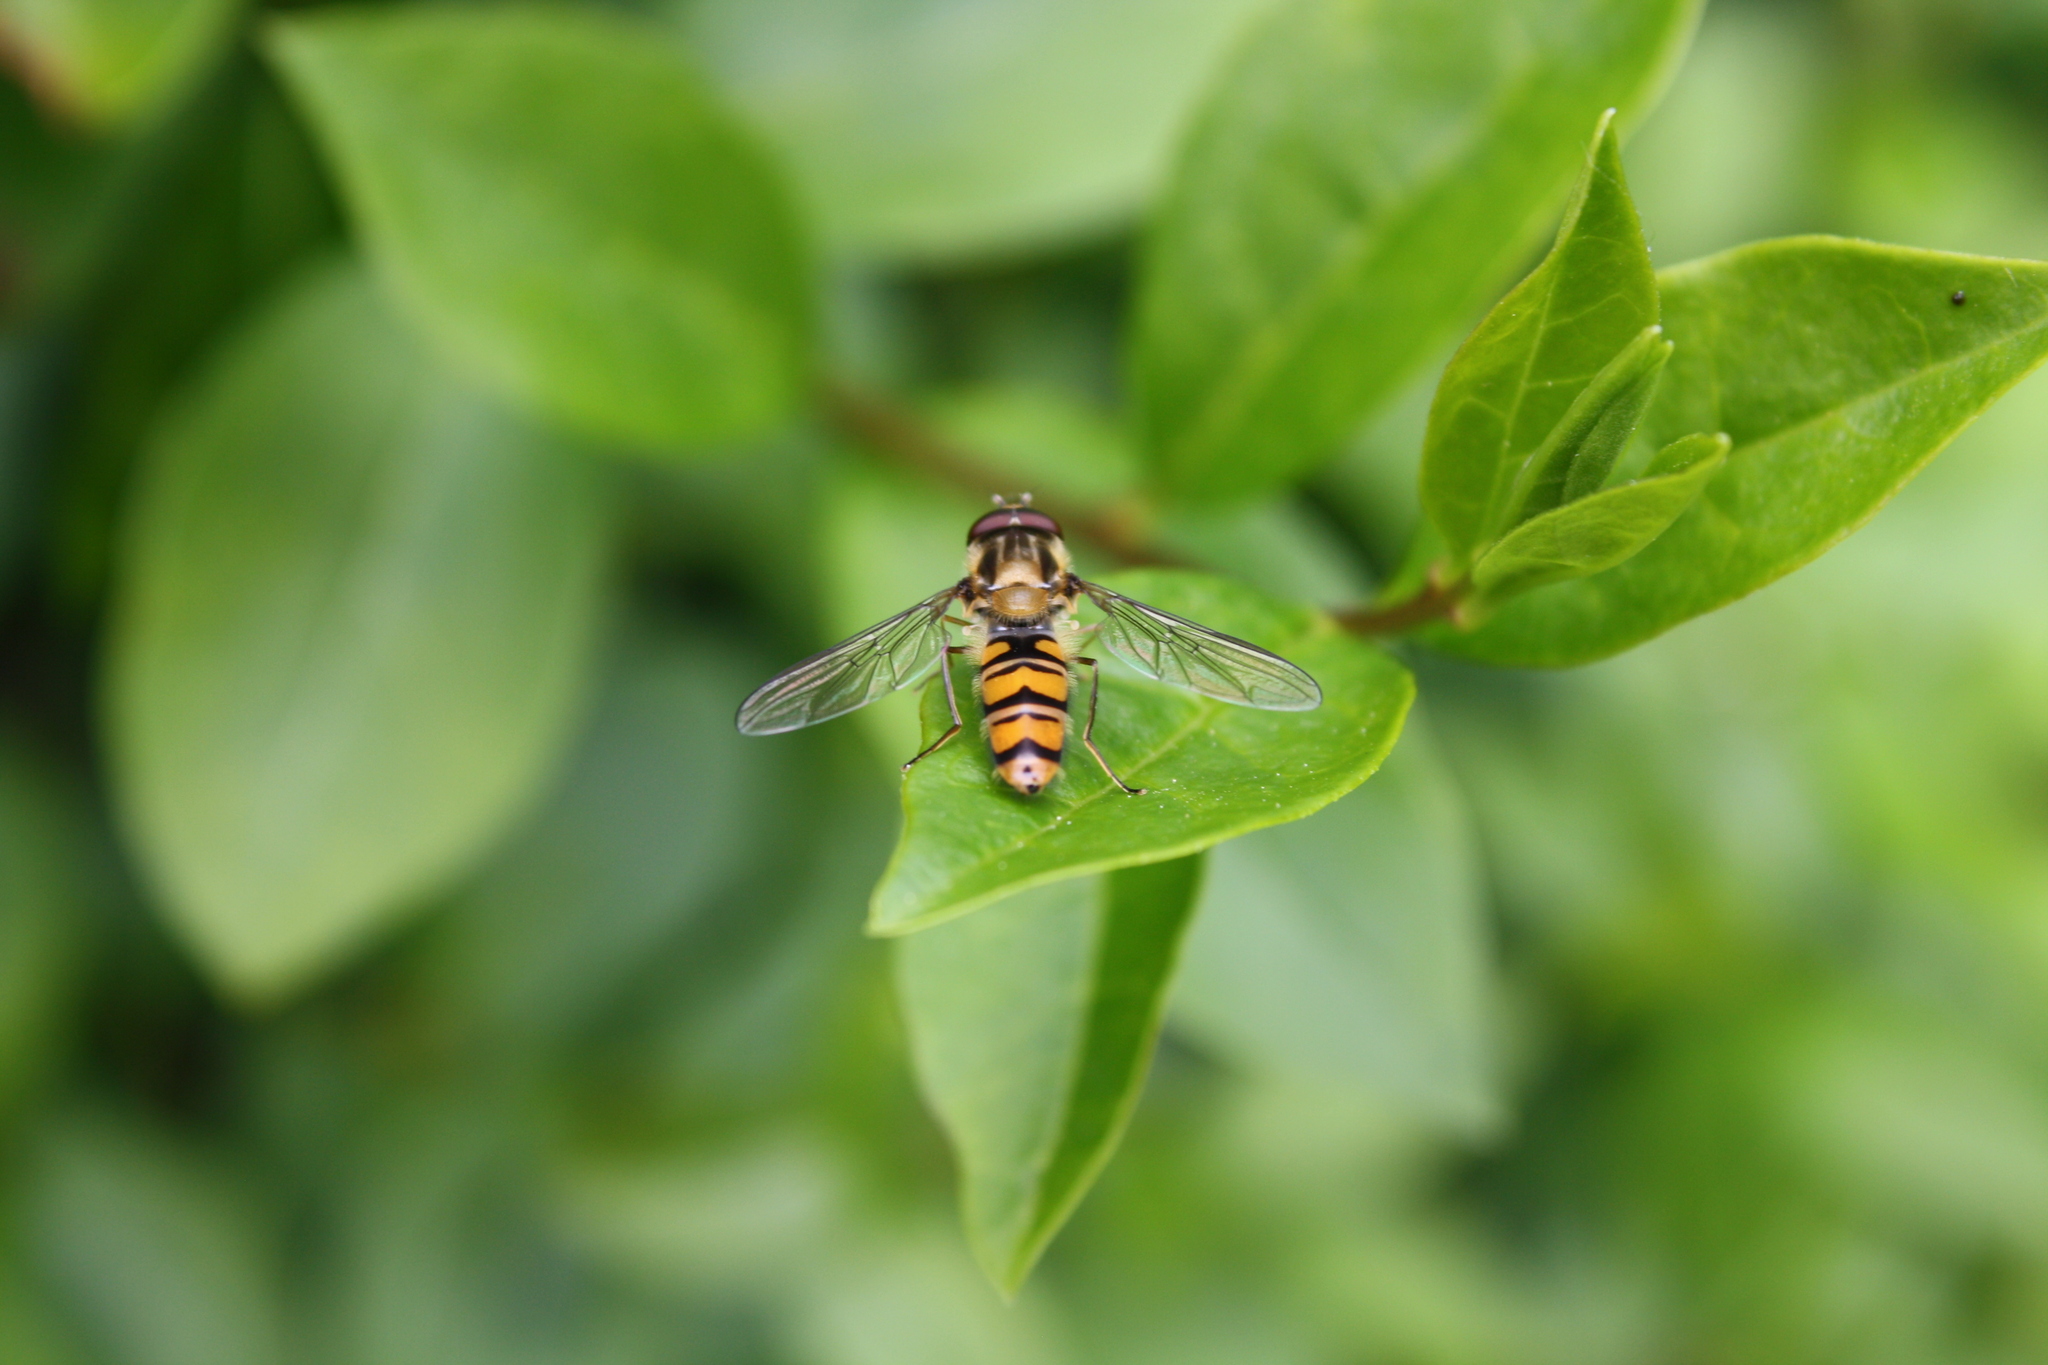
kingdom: Animalia
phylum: Arthropoda
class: Insecta
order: Diptera
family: Syrphidae
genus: Episyrphus
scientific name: Episyrphus balteatus
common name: Marmalade hoverfly
